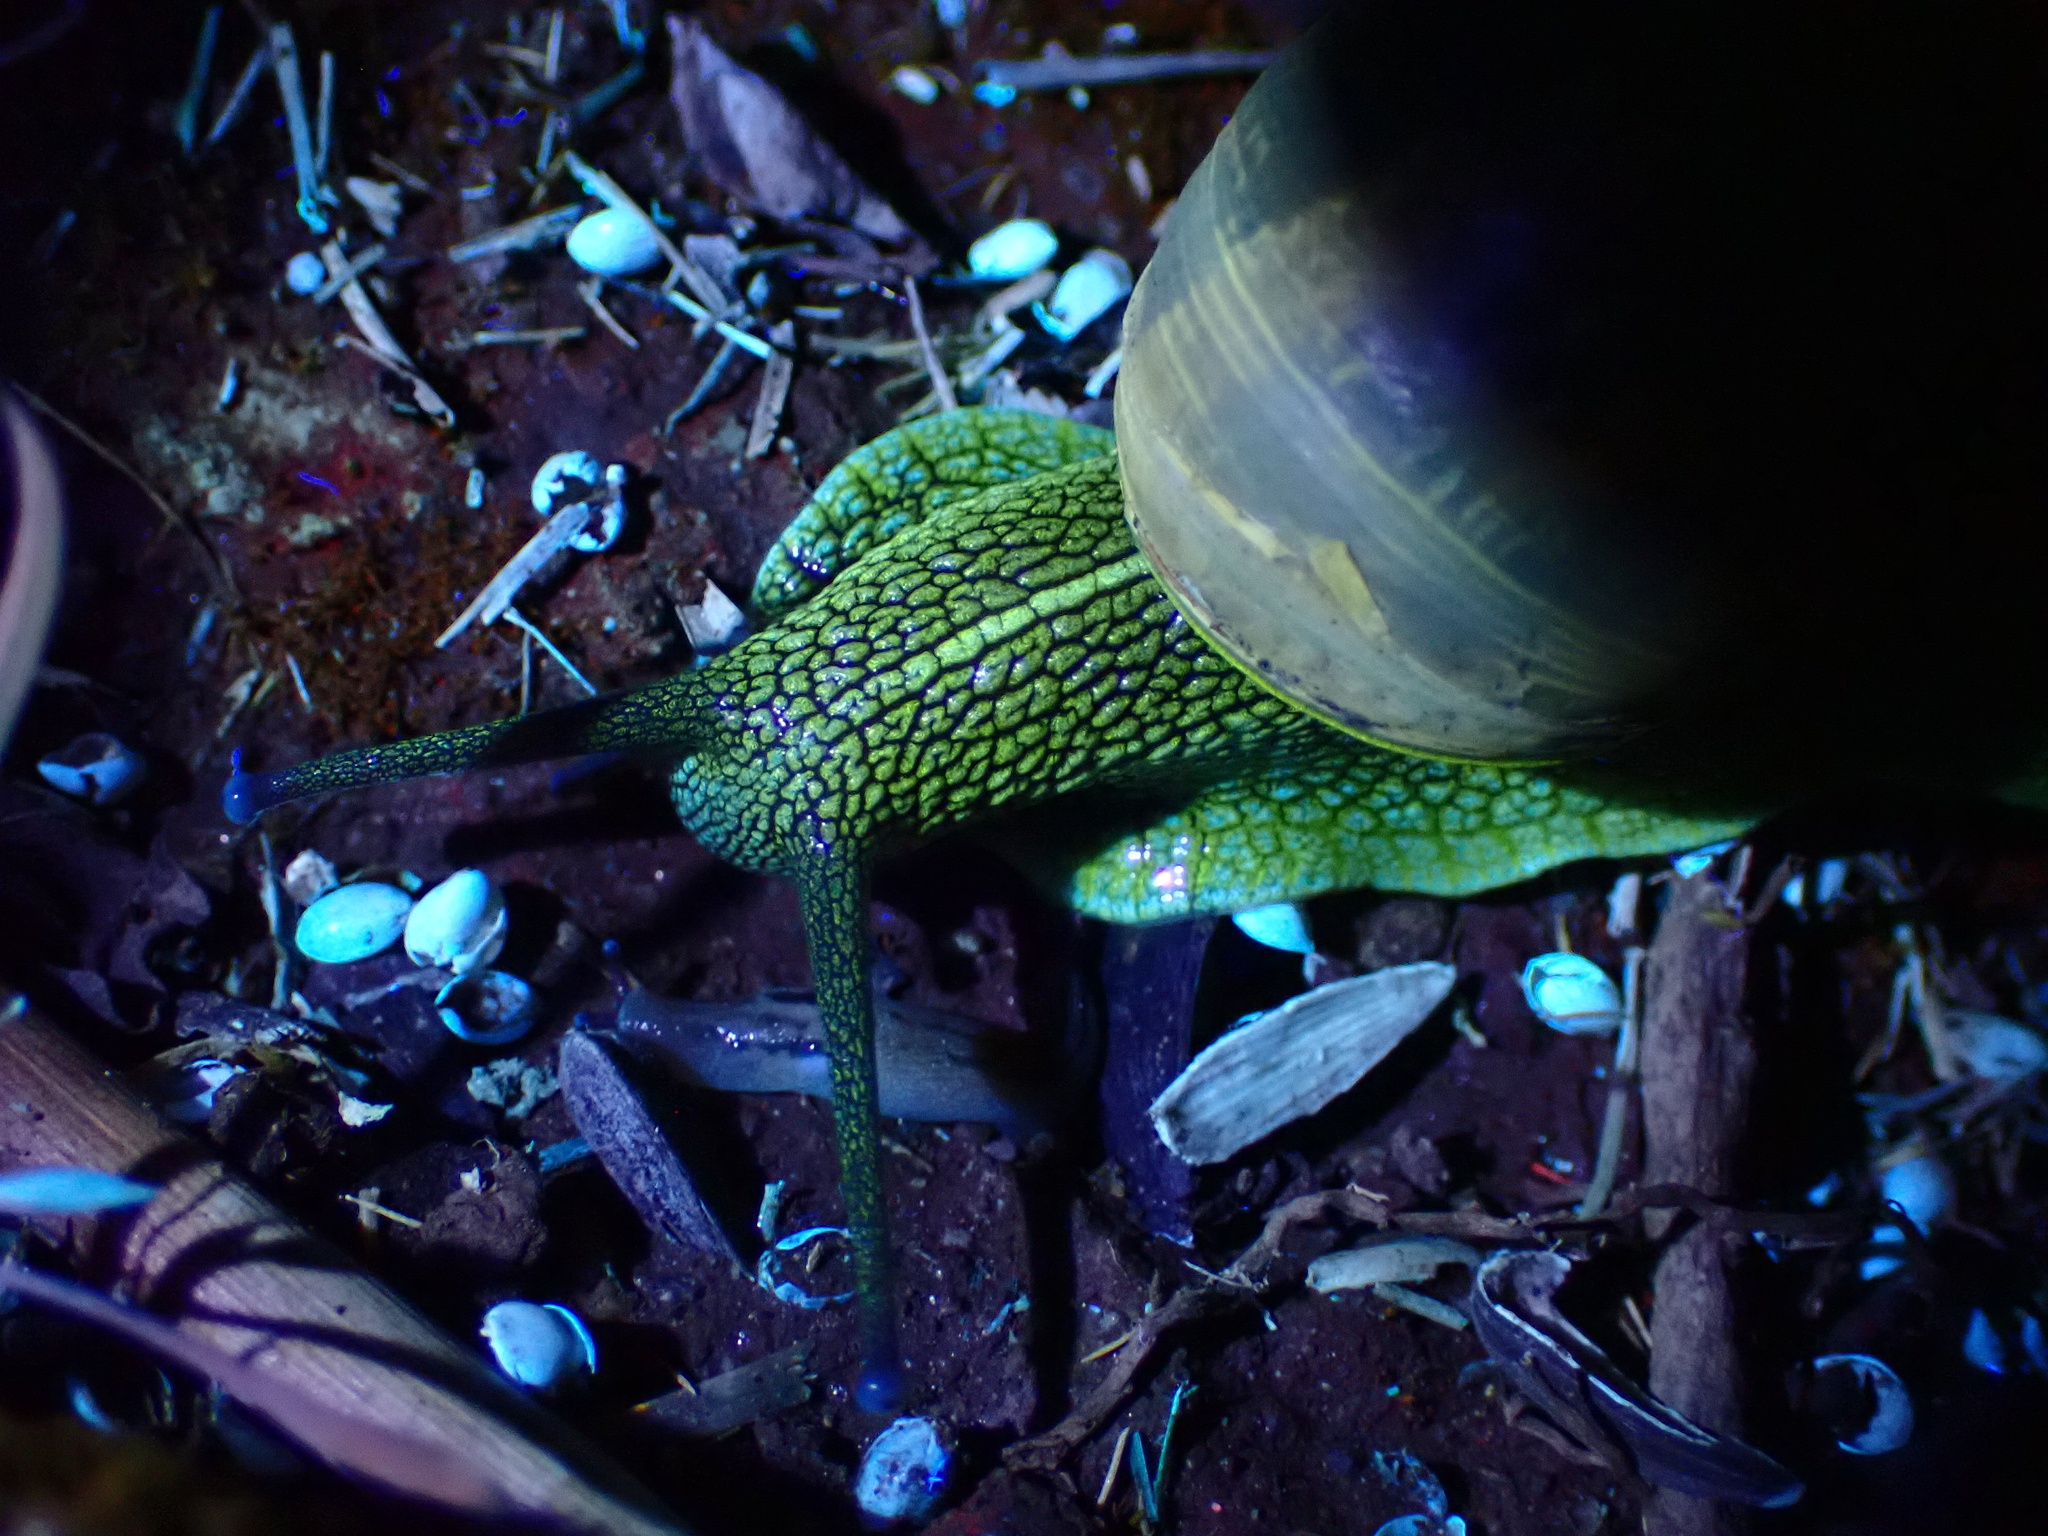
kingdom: Animalia
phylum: Mollusca
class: Gastropoda
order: Stylommatophora
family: Helicidae
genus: Cornu
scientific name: Cornu aspersum
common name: Brown garden snail
